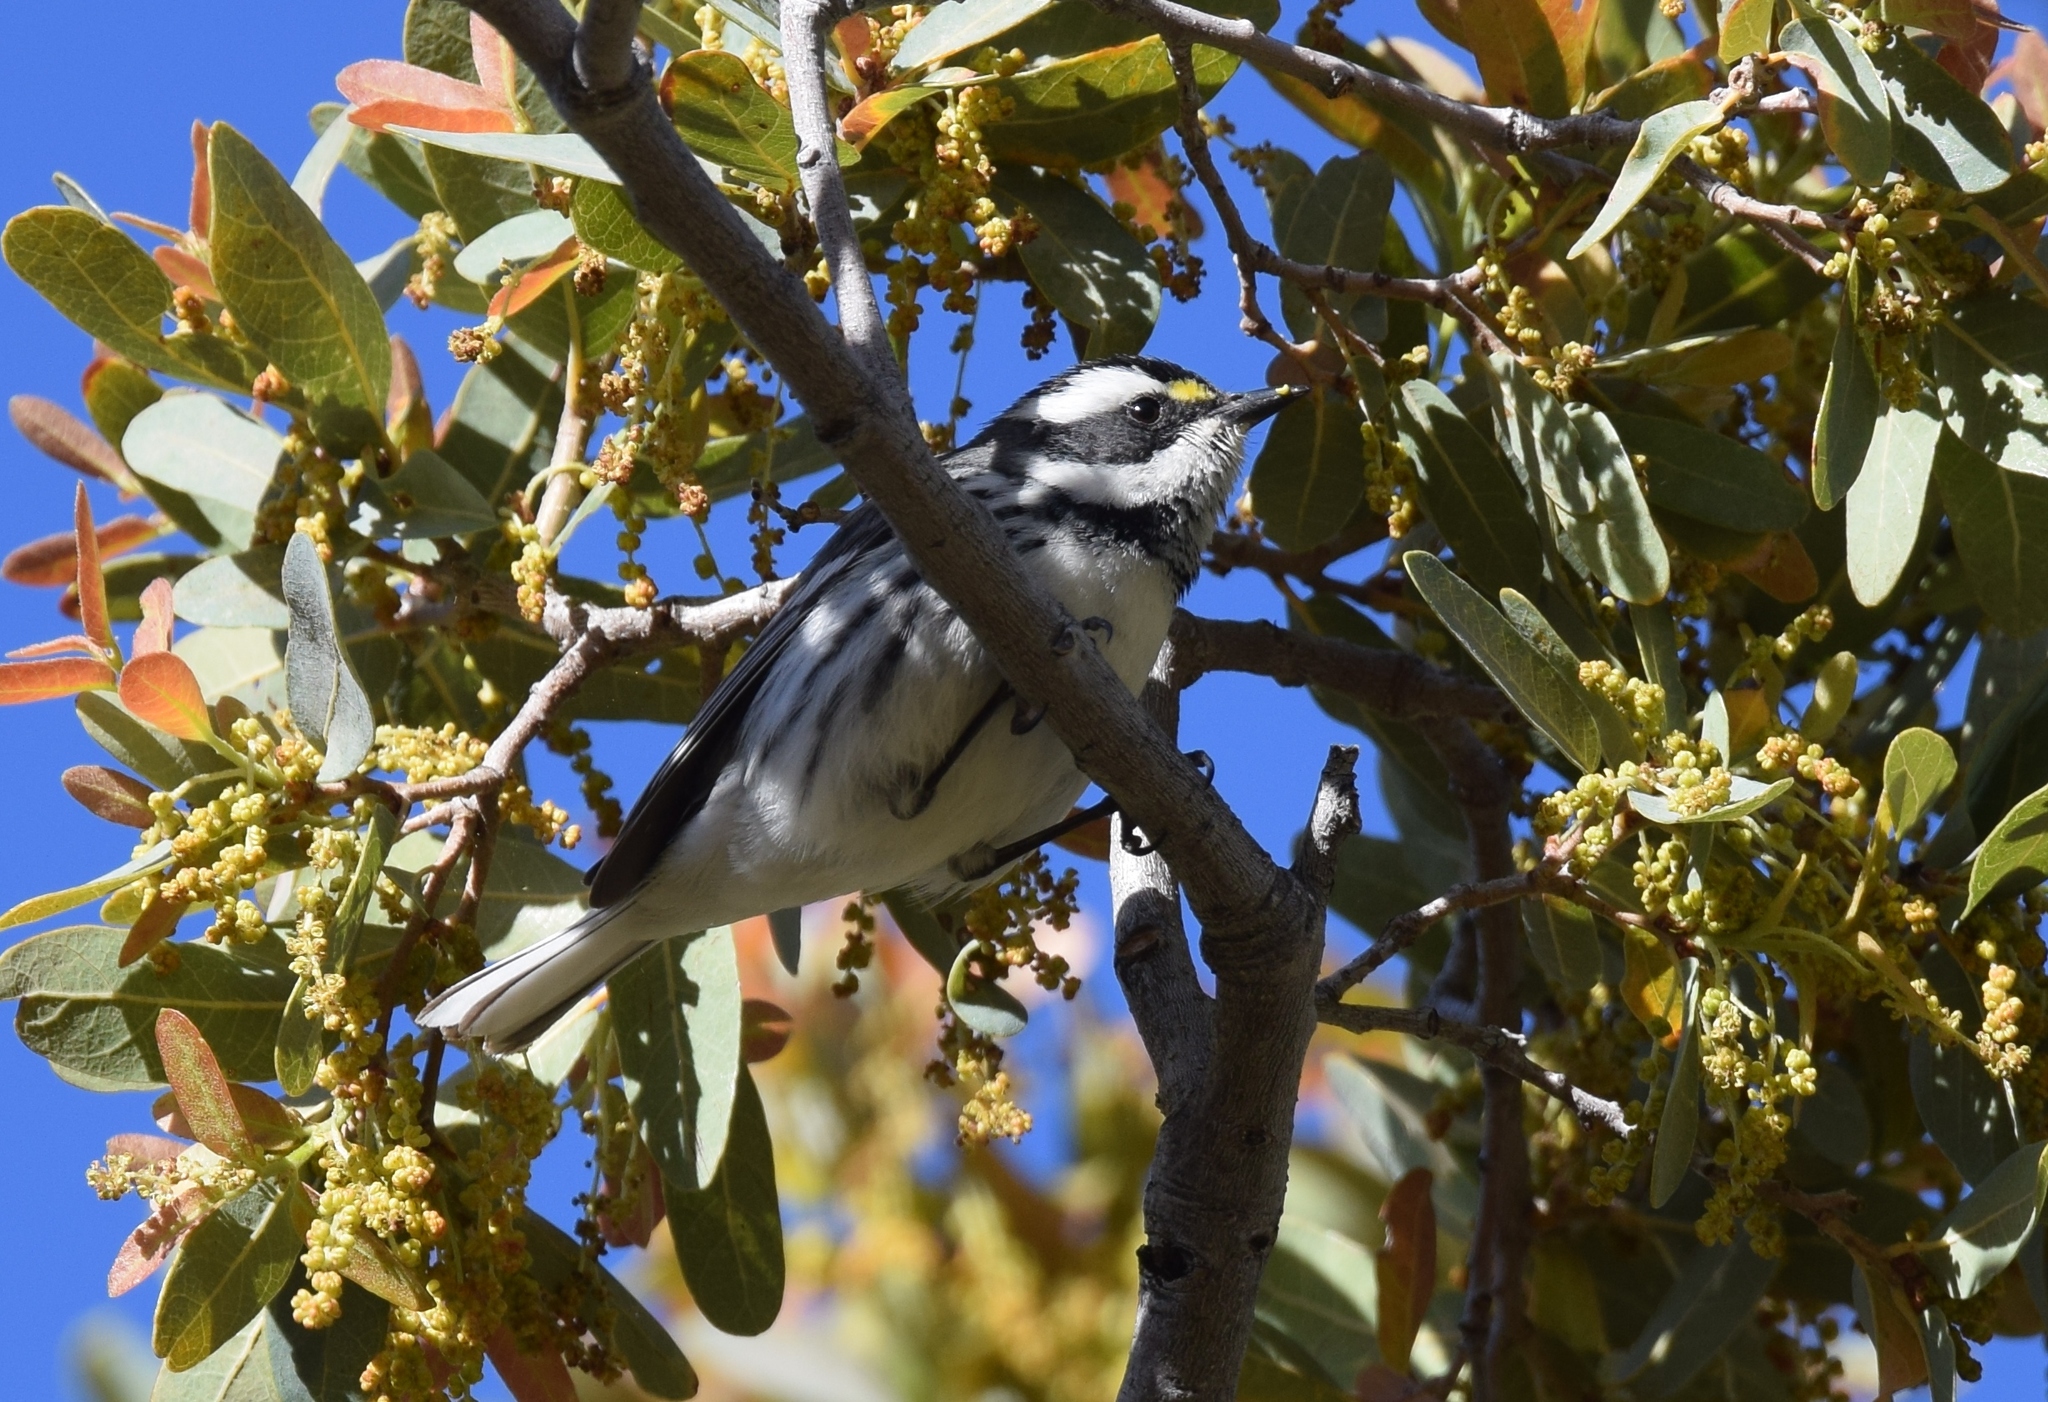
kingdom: Animalia
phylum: Chordata
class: Aves
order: Passeriformes
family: Parulidae
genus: Setophaga
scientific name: Setophaga nigrescens
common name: Black-throated gray warbler
